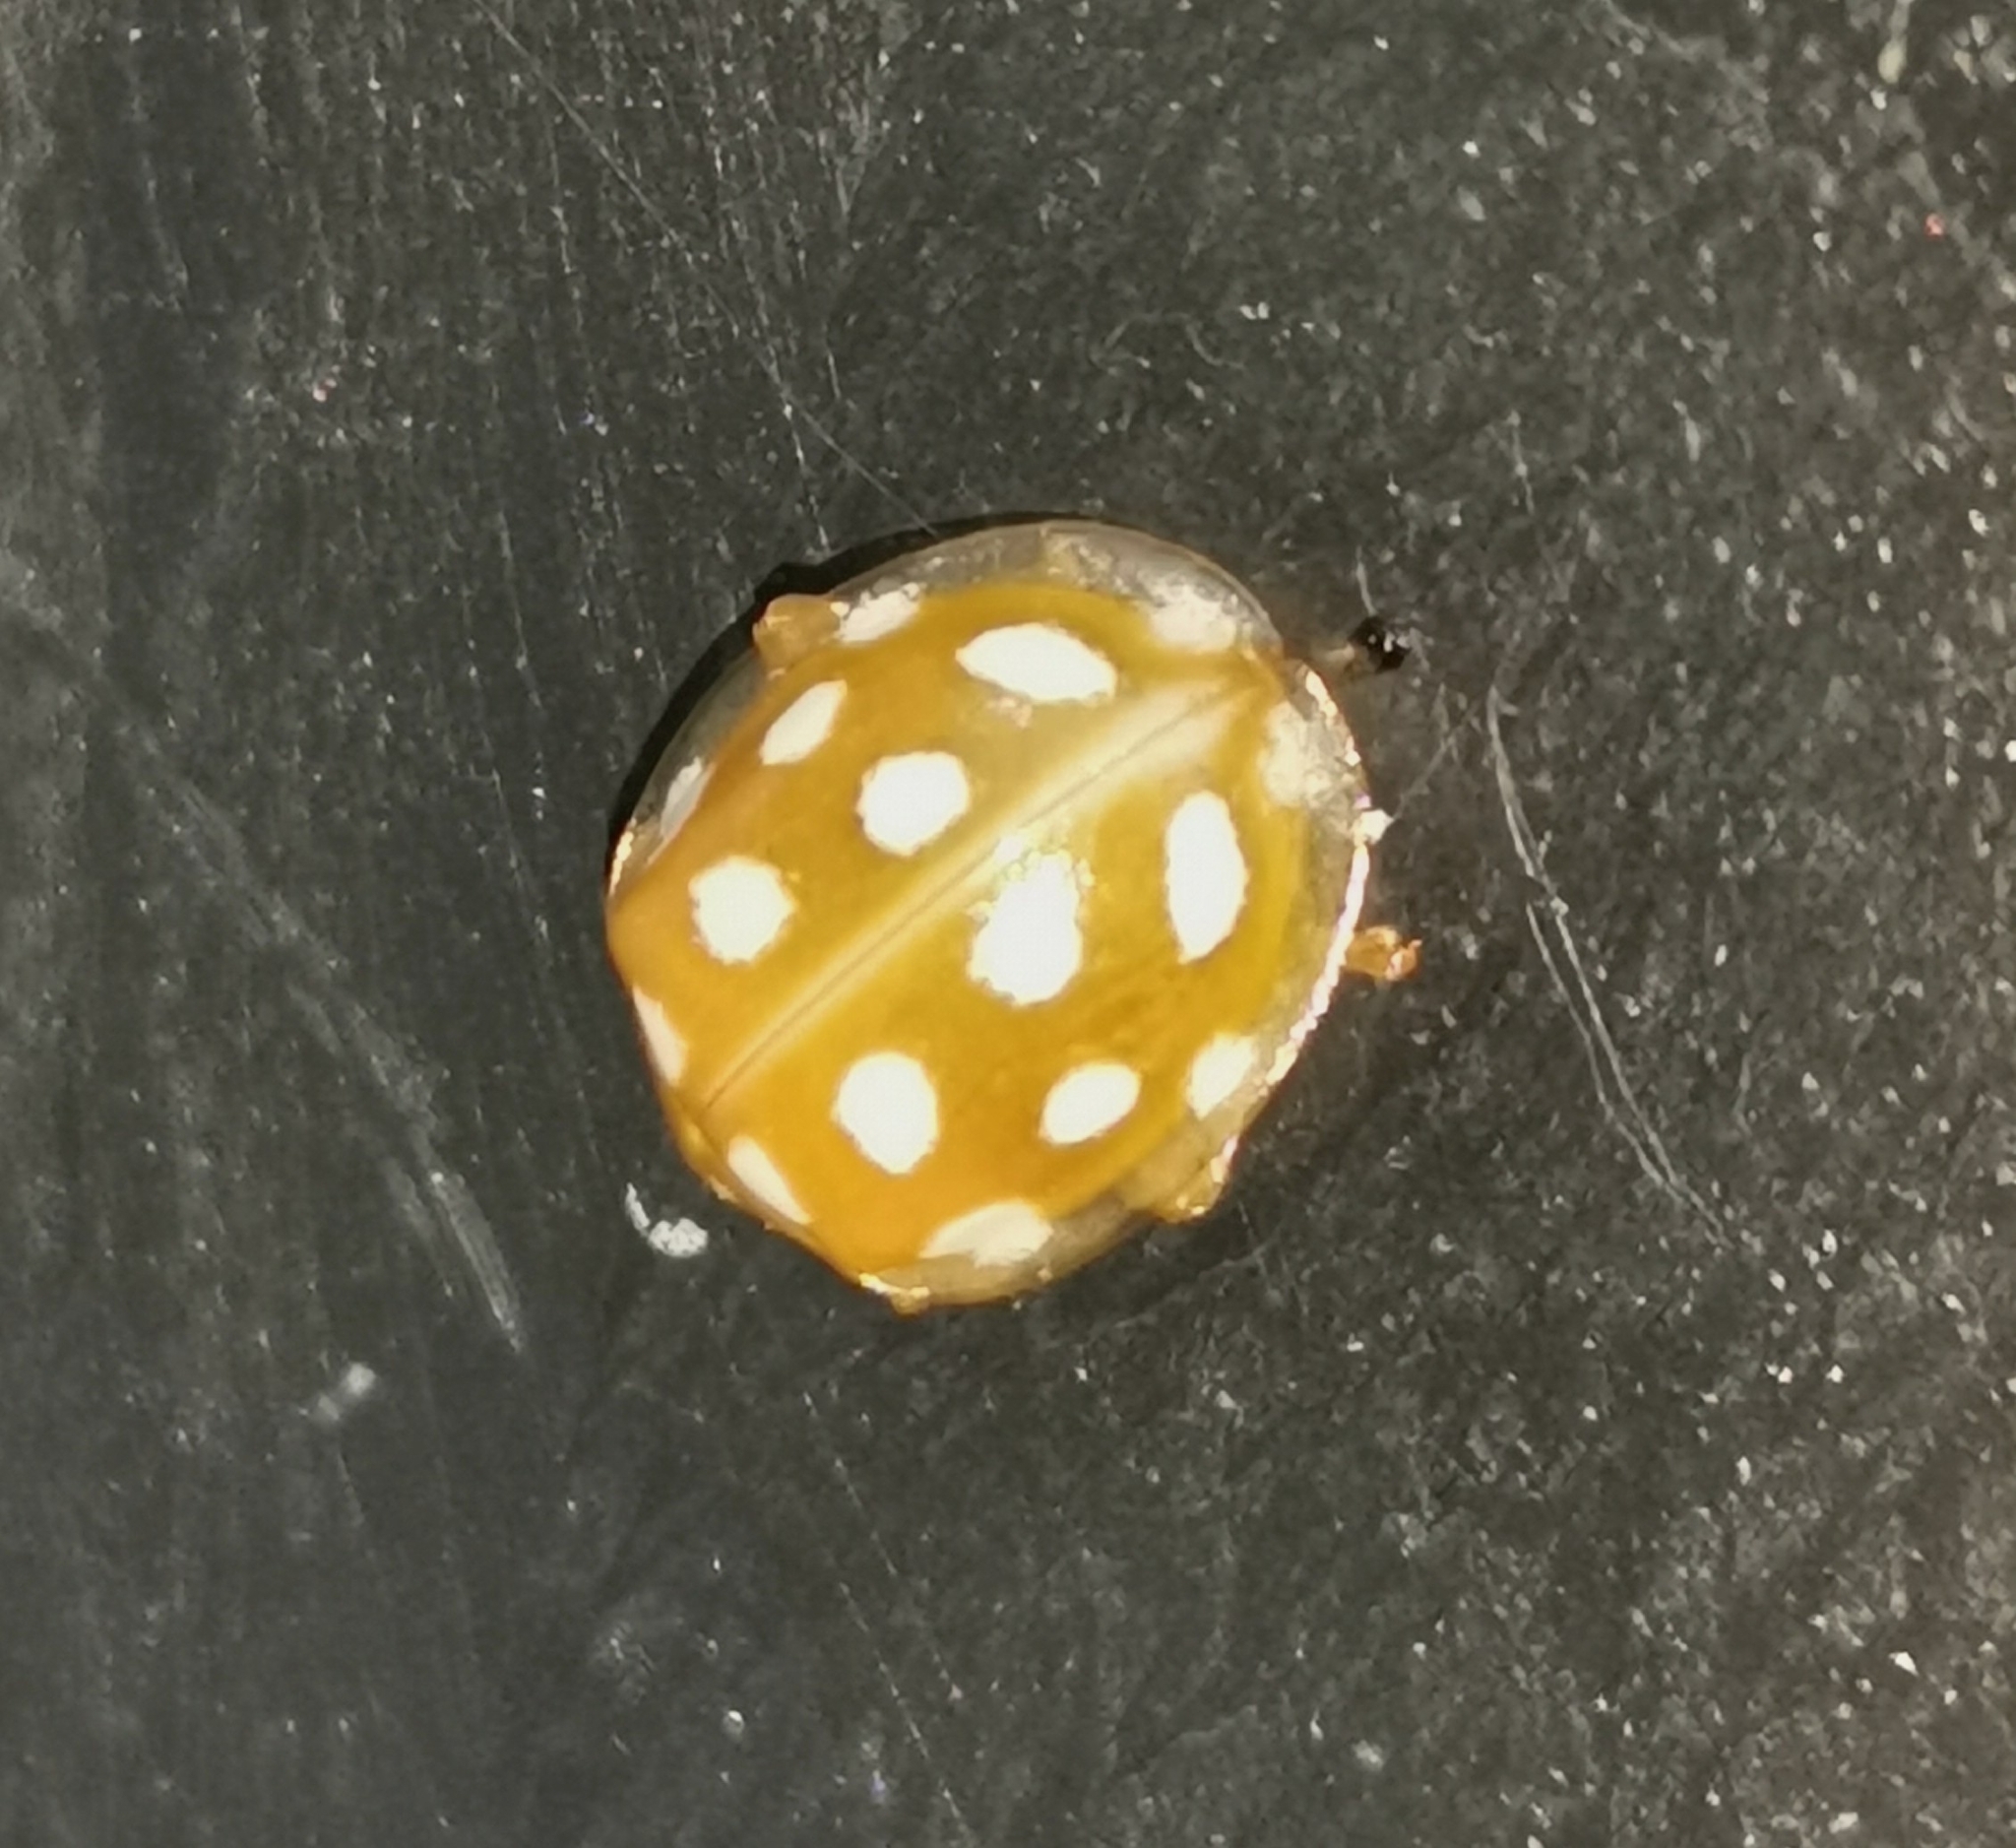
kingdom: Animalia
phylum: Arthropoda
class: Insecta
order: Coleoptera
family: Coccinellidae
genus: Halyzia
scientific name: Halyzia sedecimguttata
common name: Orange ladybird
